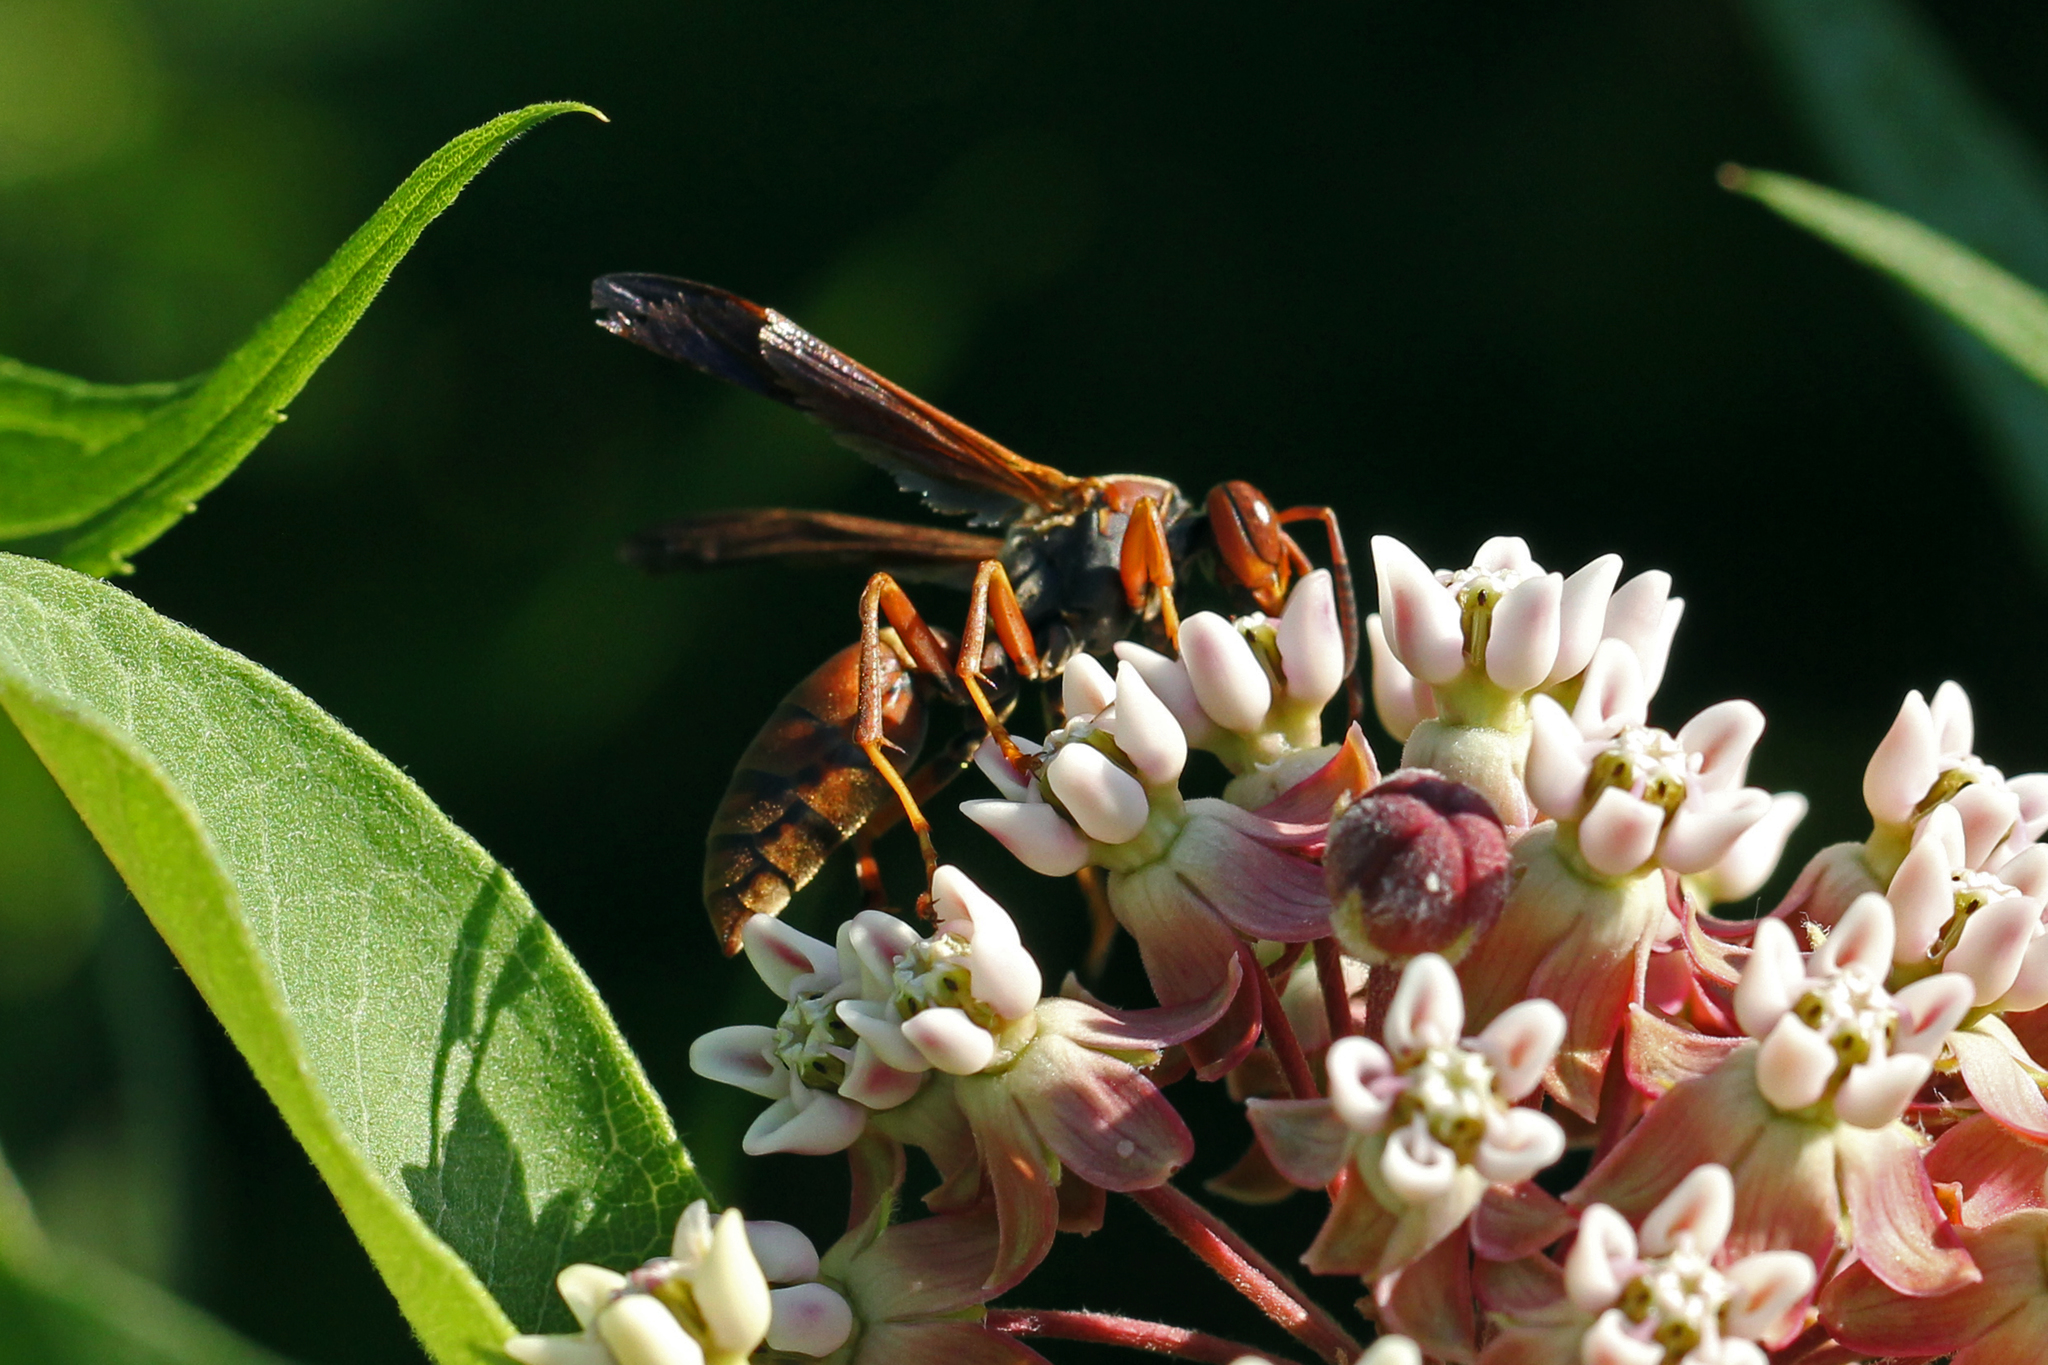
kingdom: Animalia
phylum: Arthropoda
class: Insecta
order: Hymenoptera
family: Eumenidae
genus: Polistes
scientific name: Polistes fuscatus
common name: Dark paper wasp
